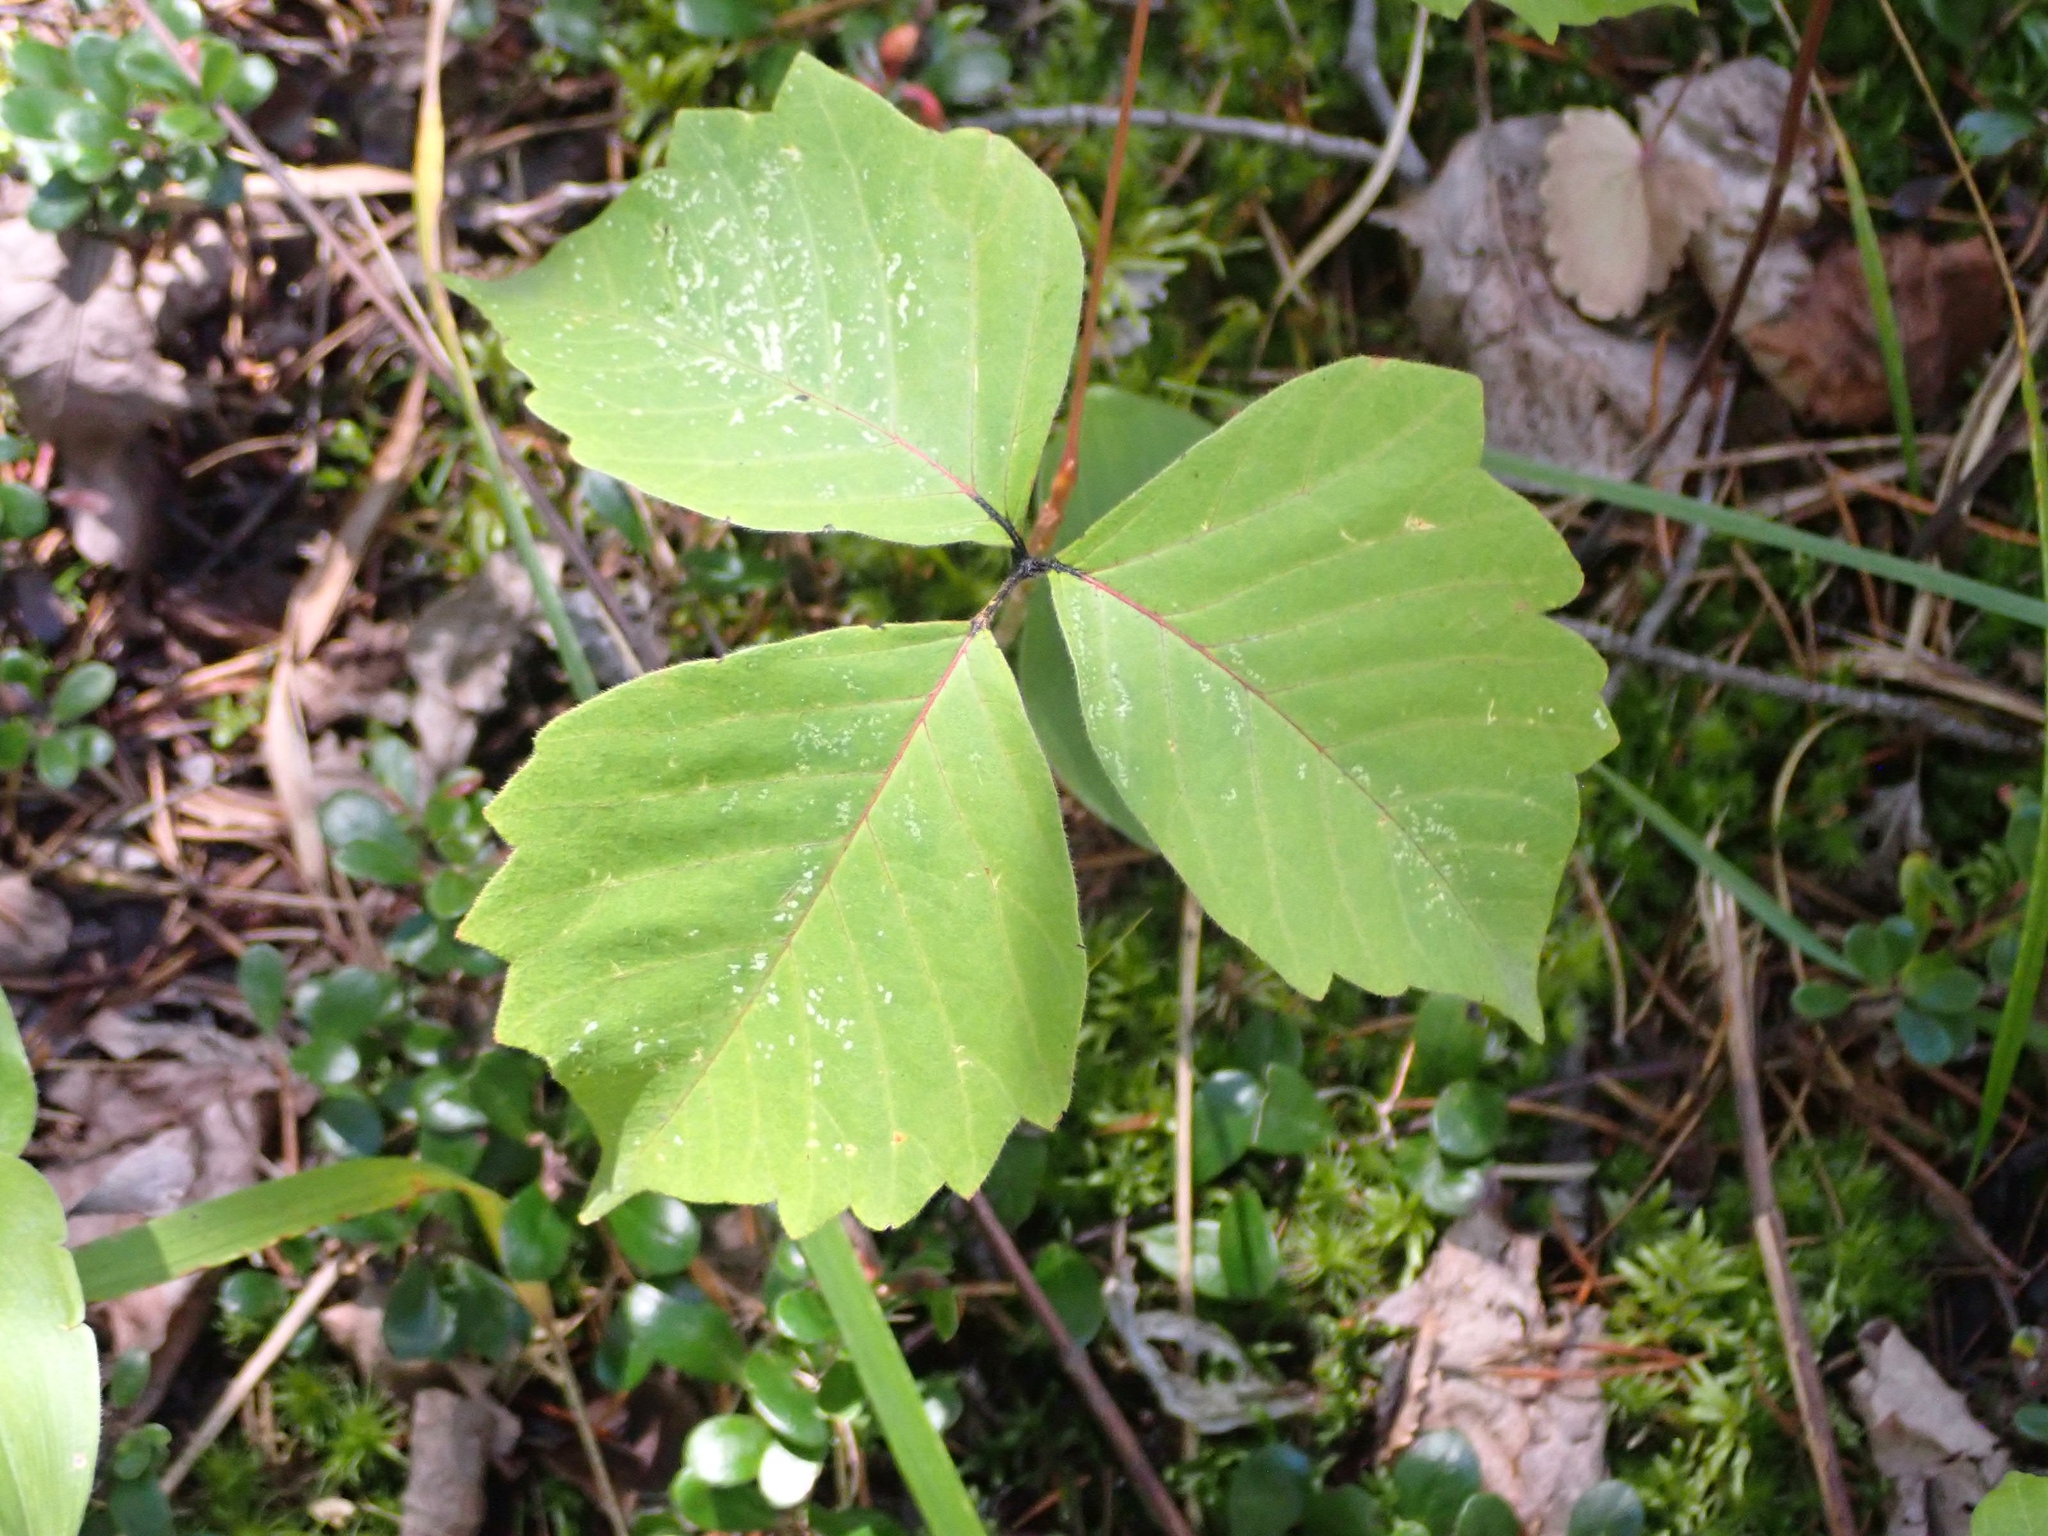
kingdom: Plantae
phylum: Tracheophyta
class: Magnoliopsida
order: Sapindales
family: Anacardiaceae
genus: Toxicodendron
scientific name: Toxicodendron rydbergii
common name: Rydberg's poison-ivy
